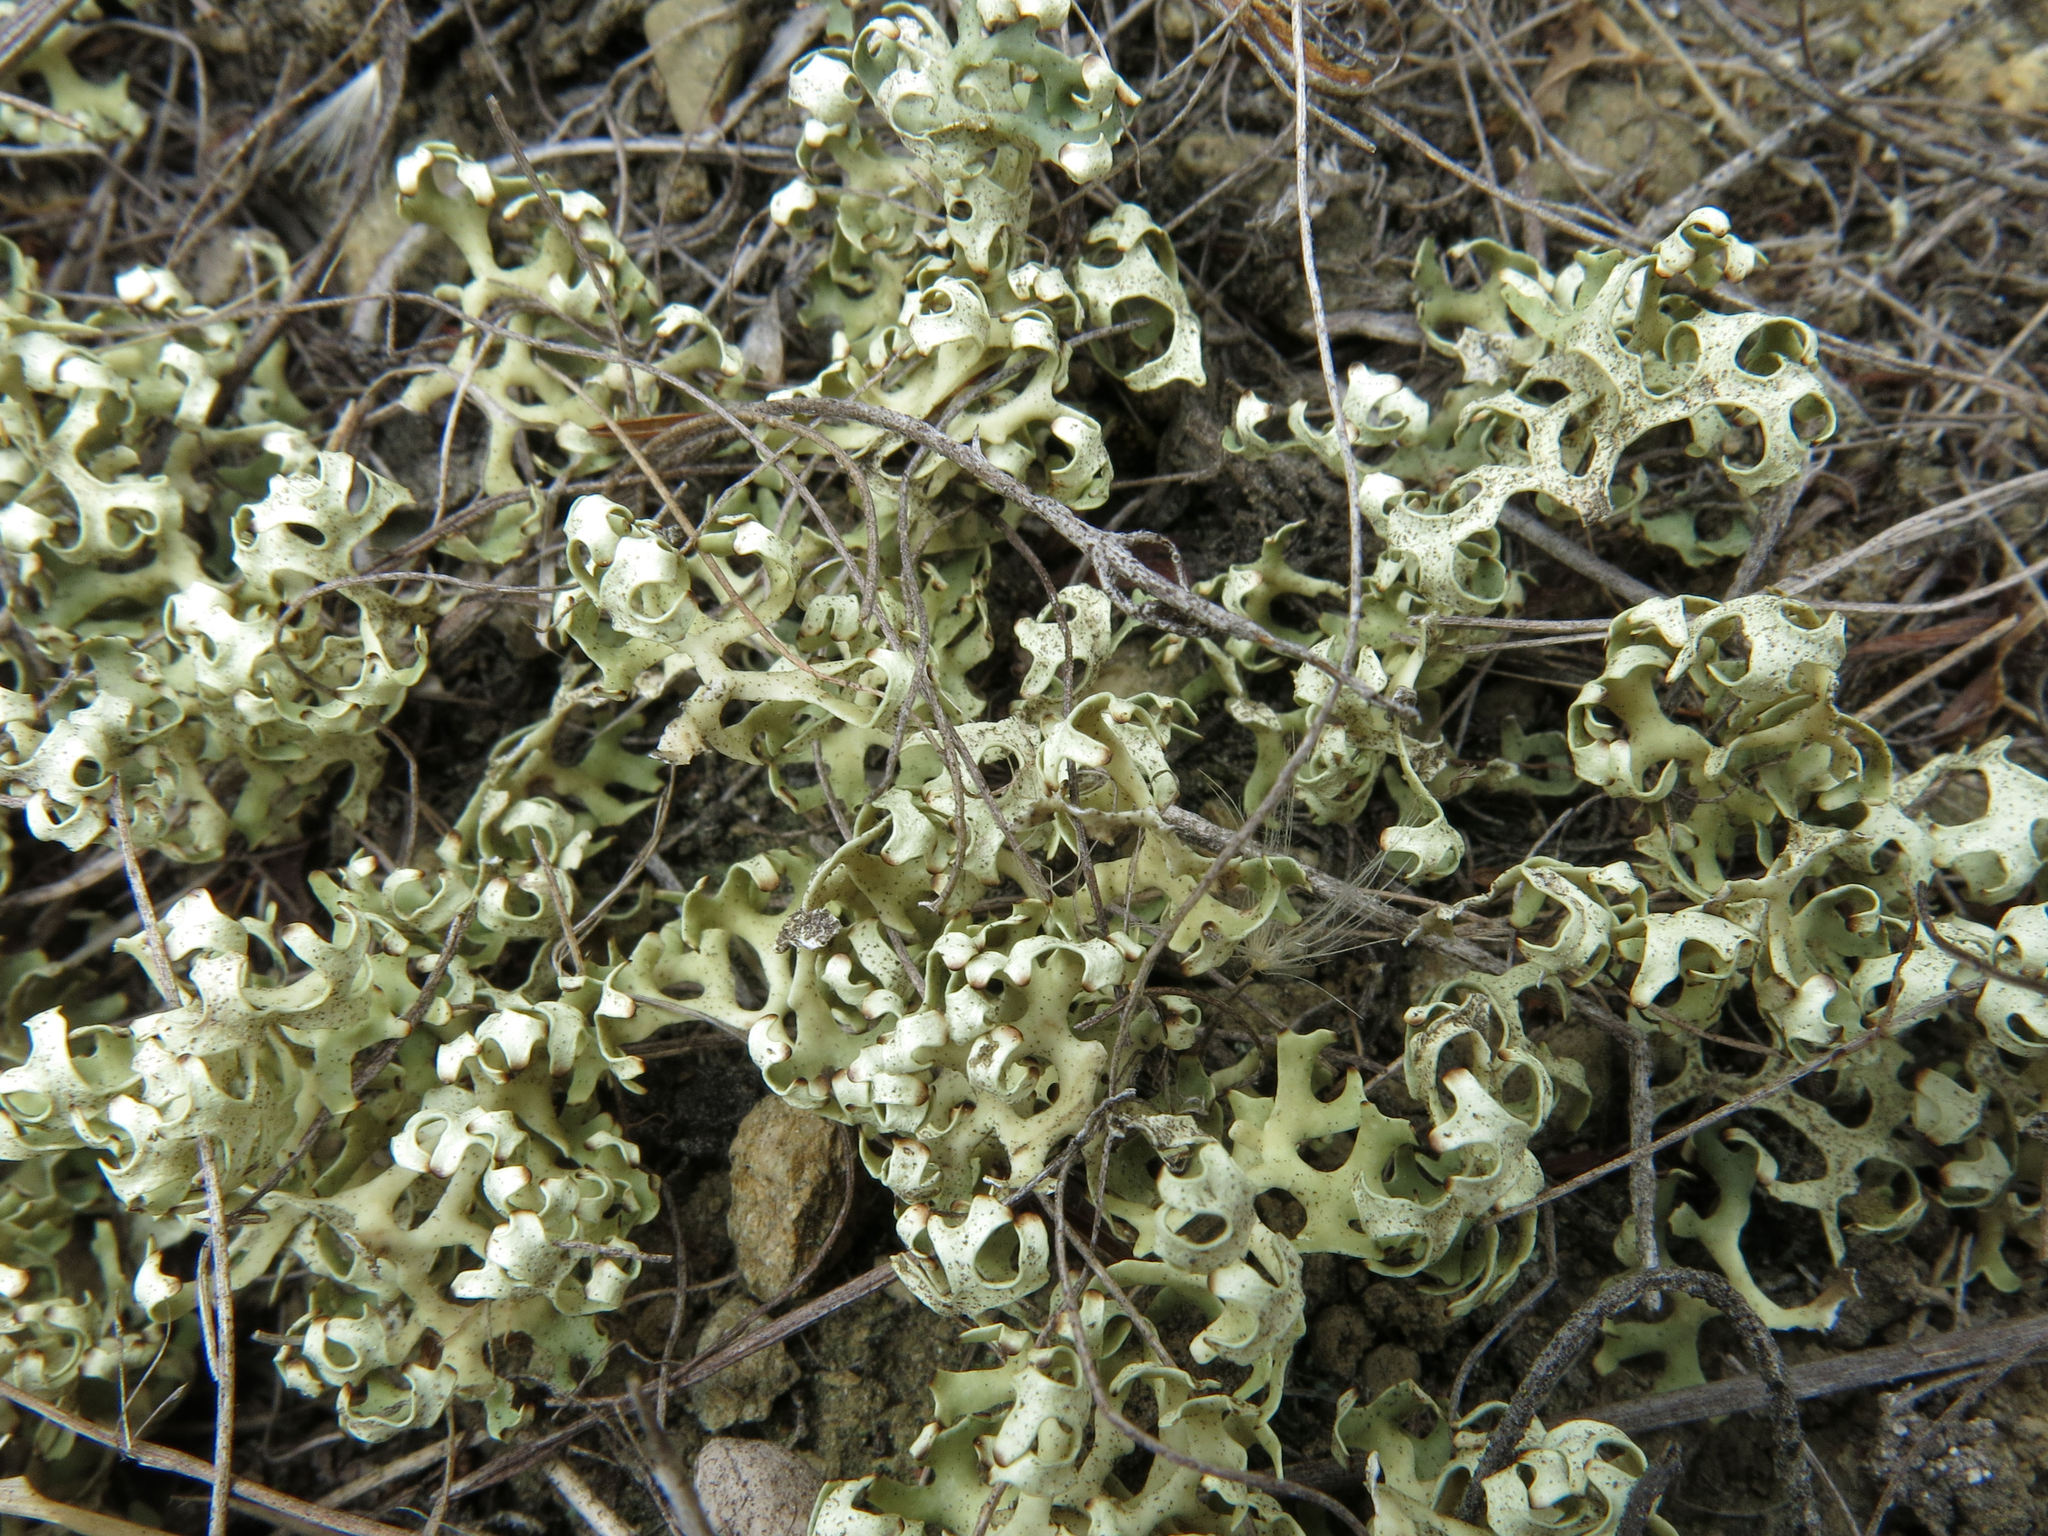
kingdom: Fungi
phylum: Ascomycota
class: Lecanoromycetes
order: Lecanorales
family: Parmeliaceae
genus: Xanthoparmelia
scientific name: Xanthoparmelia semiviridis
